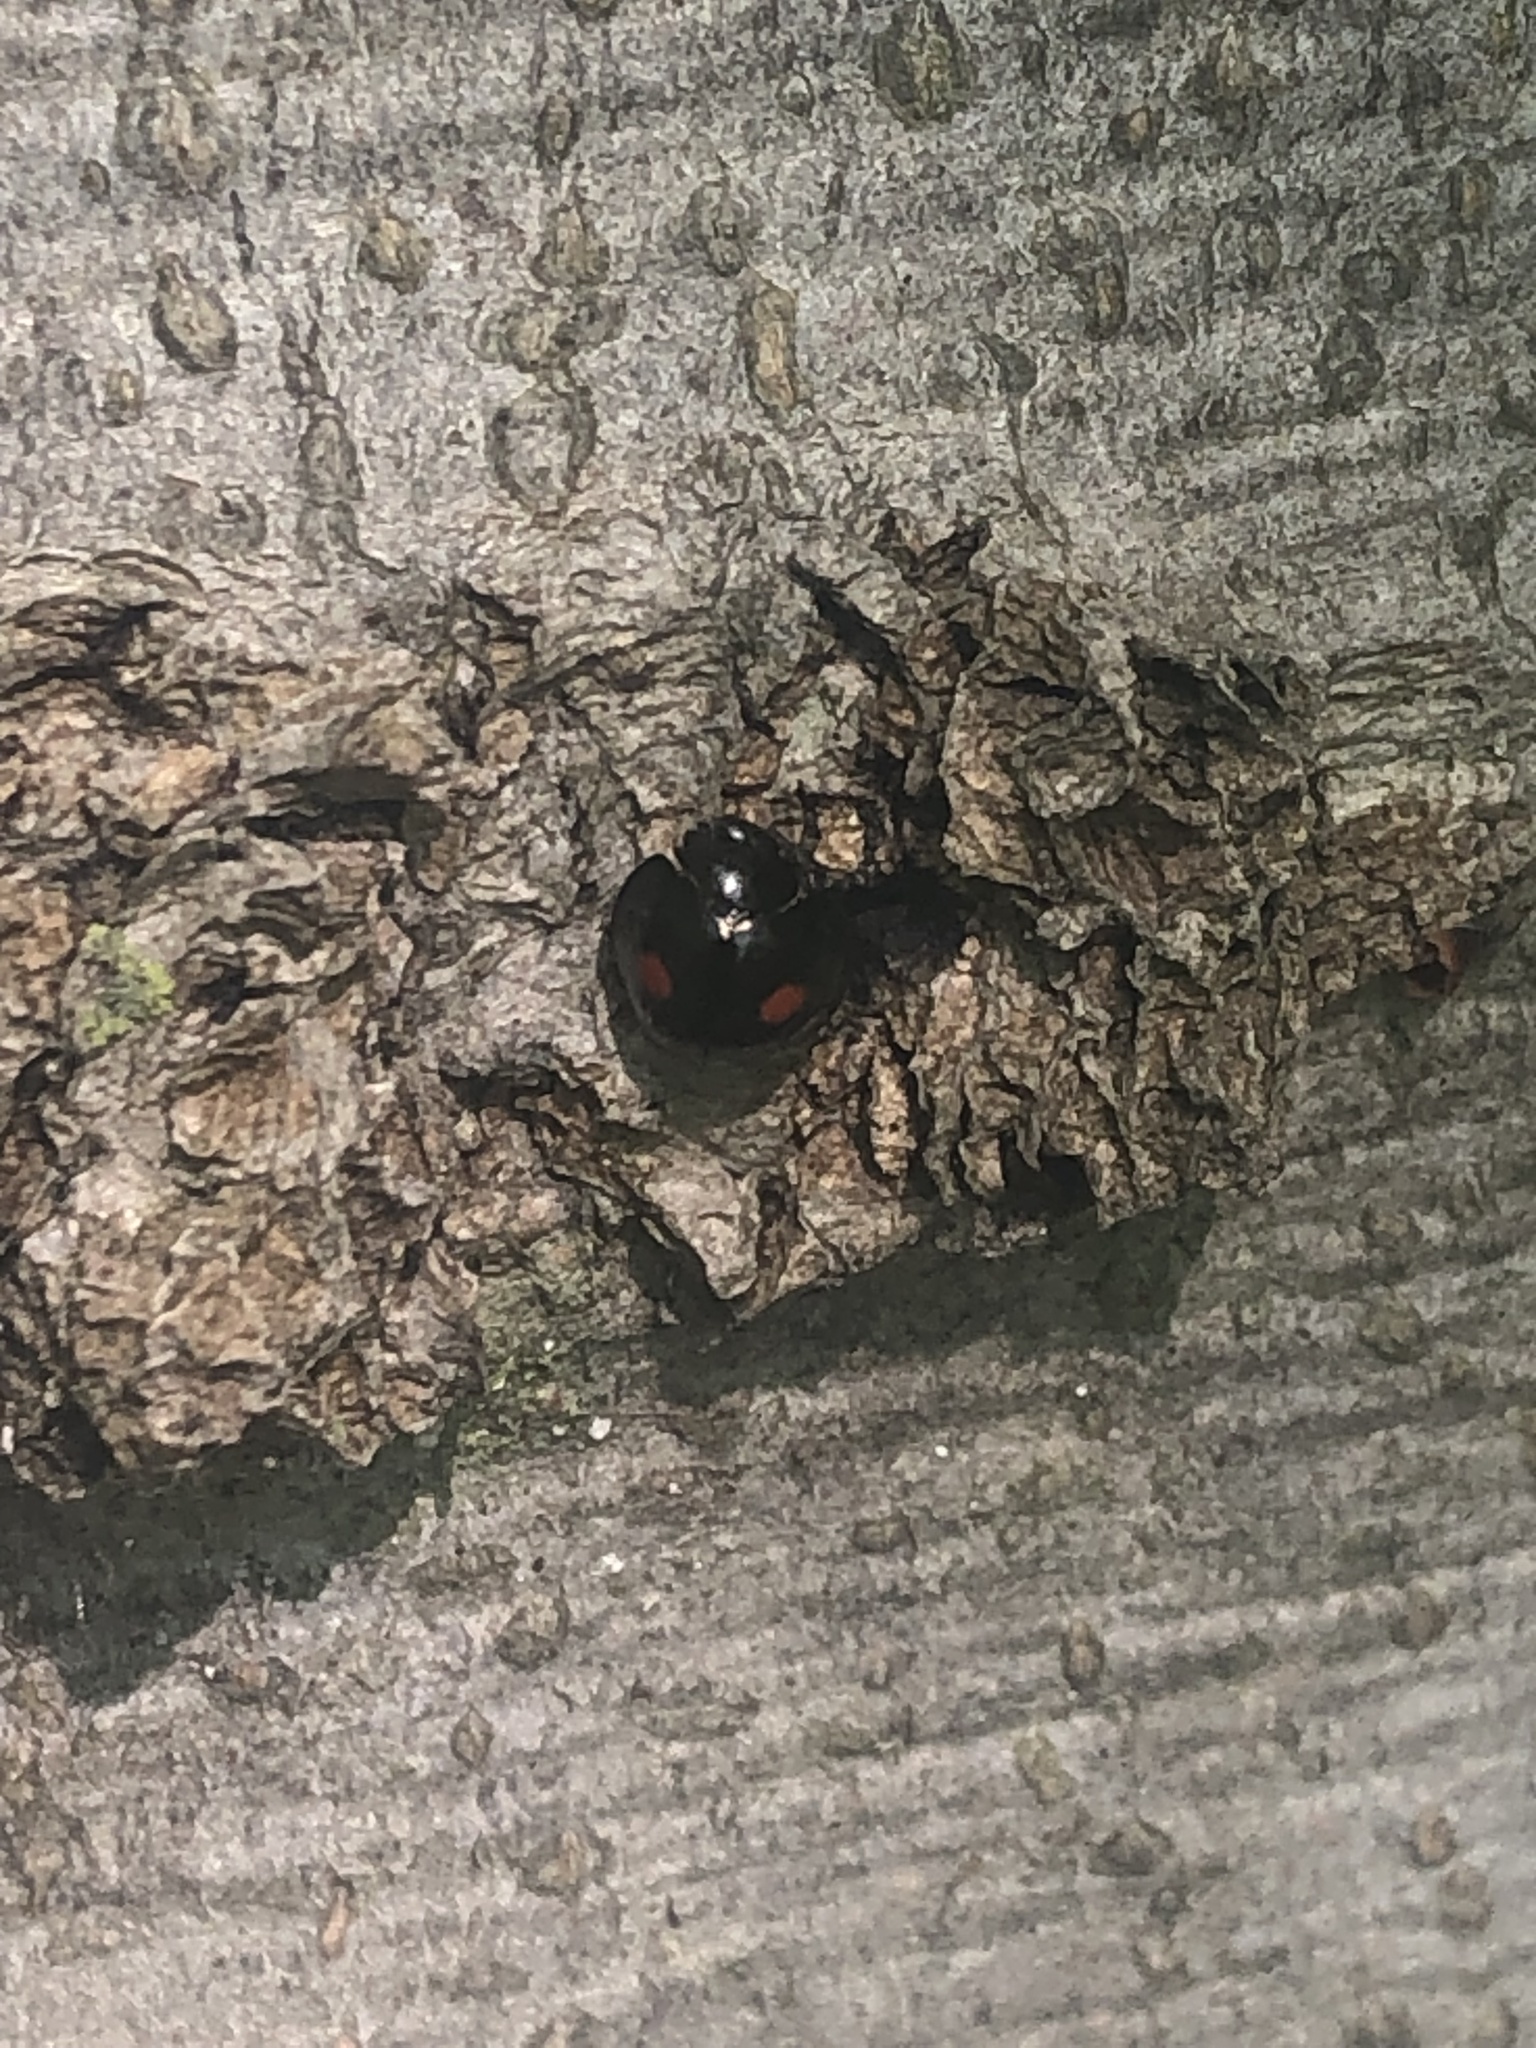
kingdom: Animalia
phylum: Arthropoda
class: Insecta
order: Coleoptera
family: Coccinellidae
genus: Chilocorus
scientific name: Chilocorus stigma
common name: Twicestabbed lady beetle
